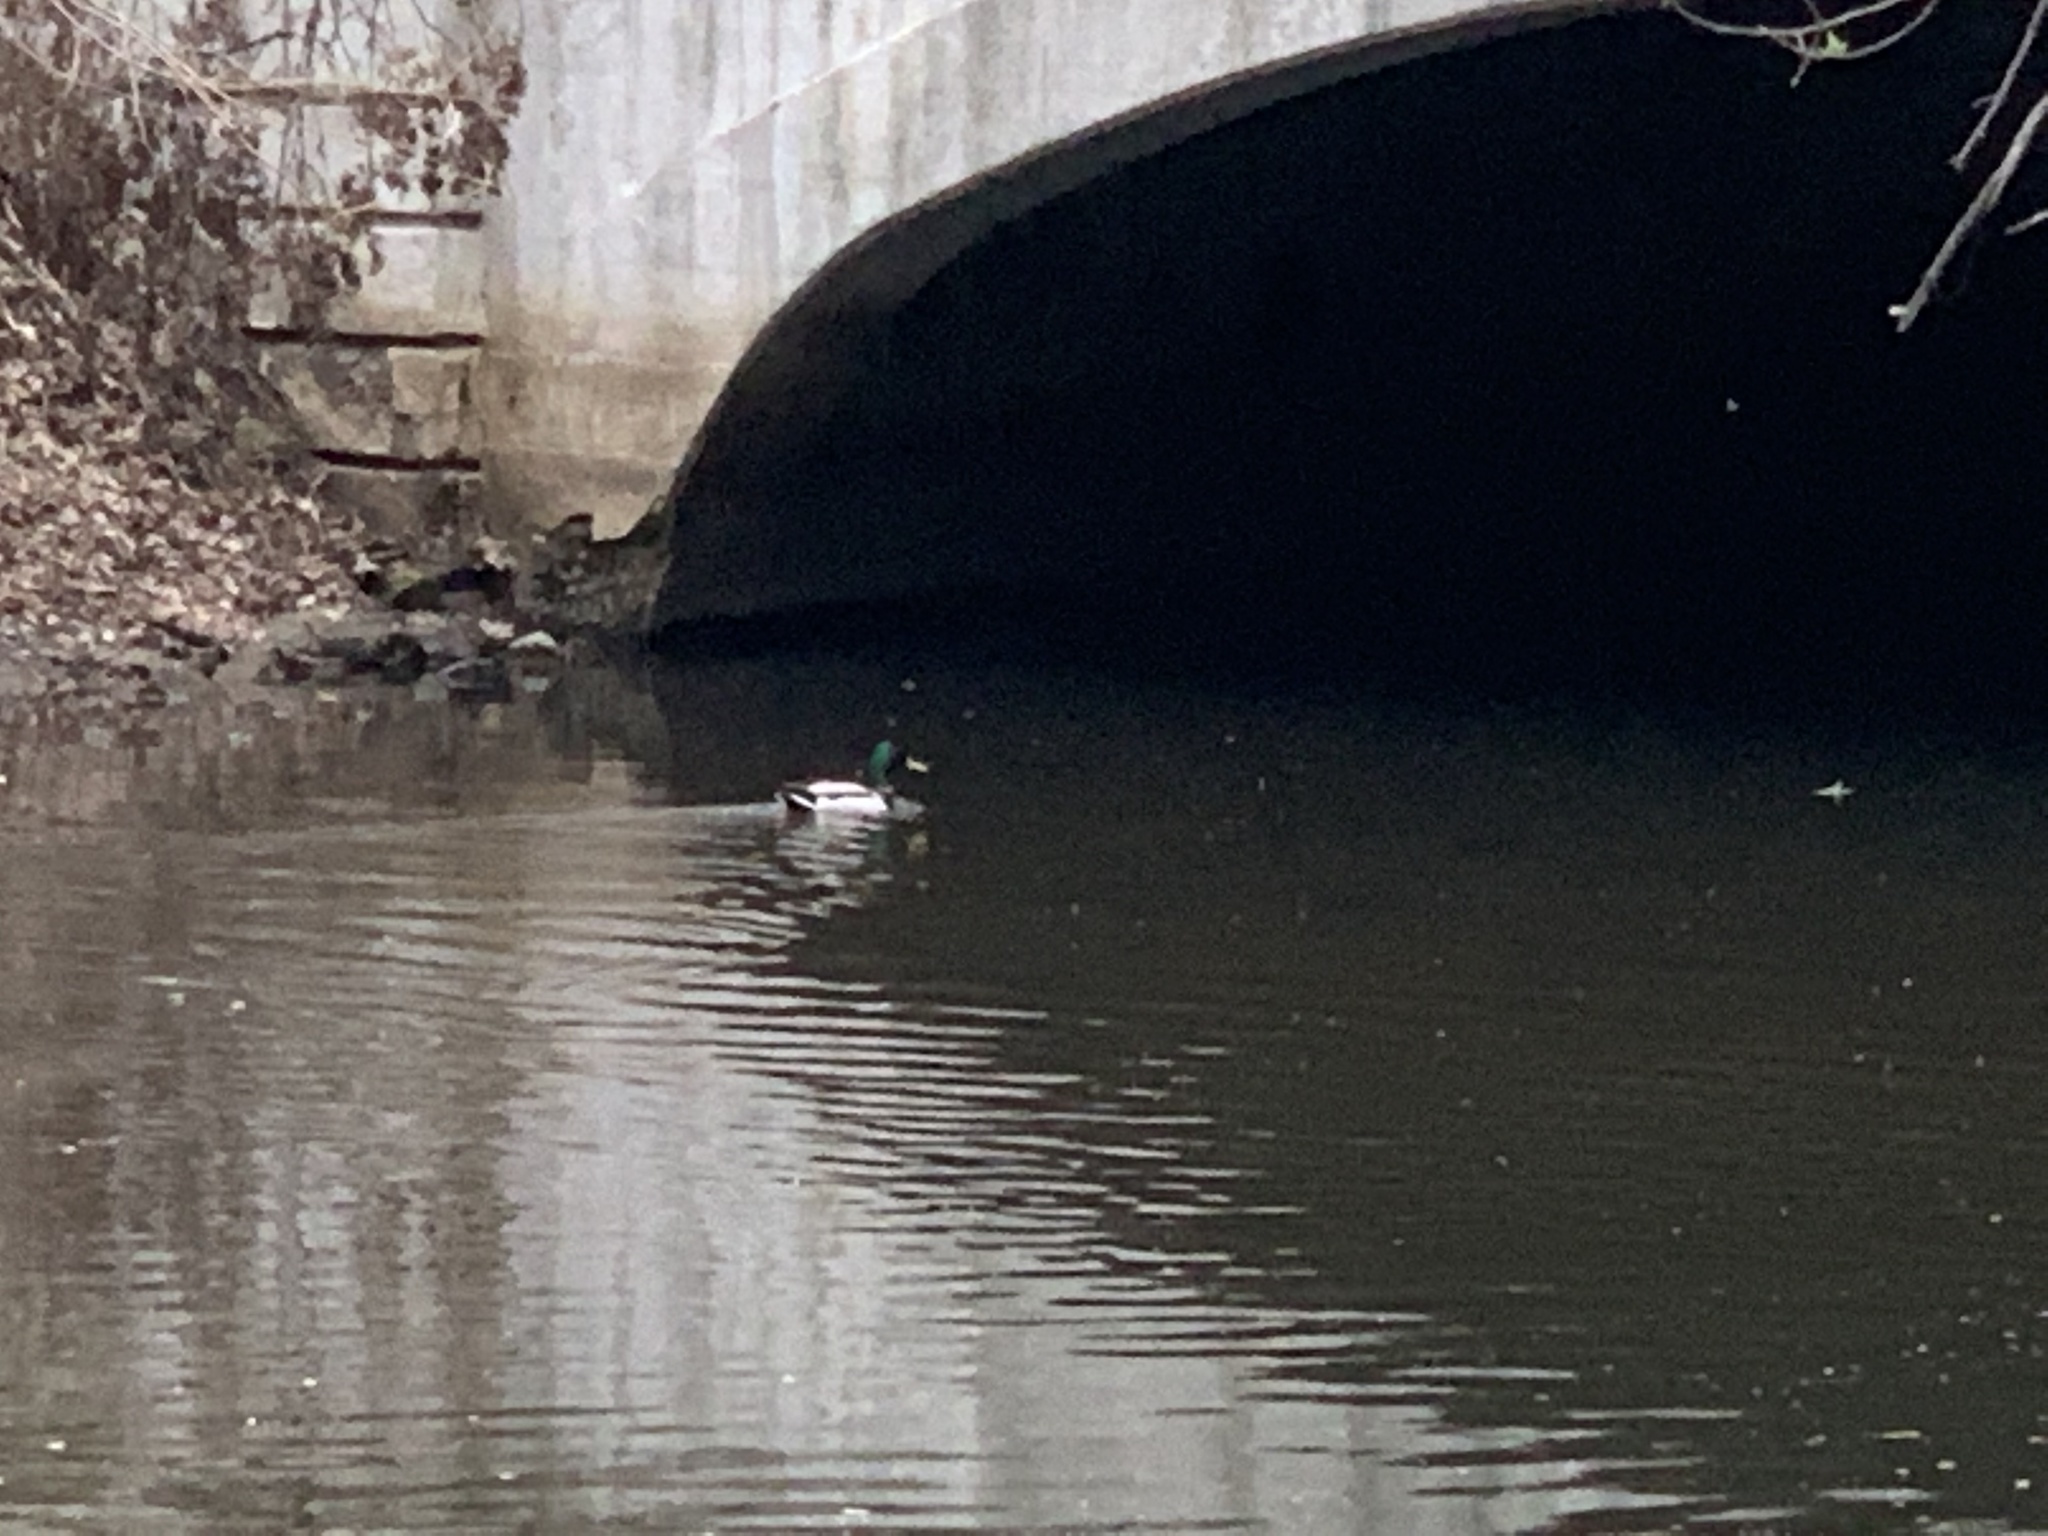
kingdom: Animalia
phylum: Chordata
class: Aves
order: Anseriformes
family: Anatidae
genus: Anas
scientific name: Anas platyrhynchos
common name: Mallard
